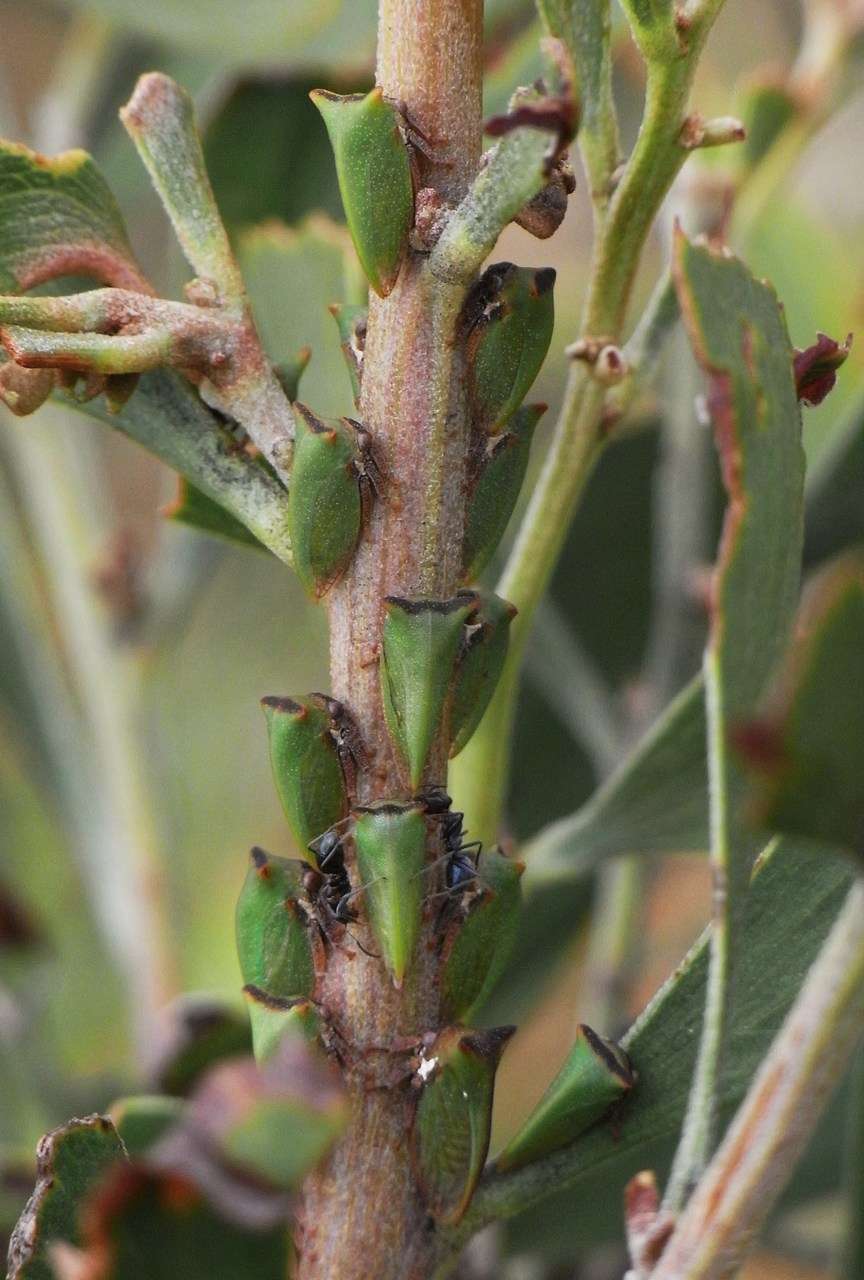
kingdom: Animalia
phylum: Arthropoda
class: Insecta
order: Hemiptera
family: Membracidae
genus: Sextius
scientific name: Sextius virescens
